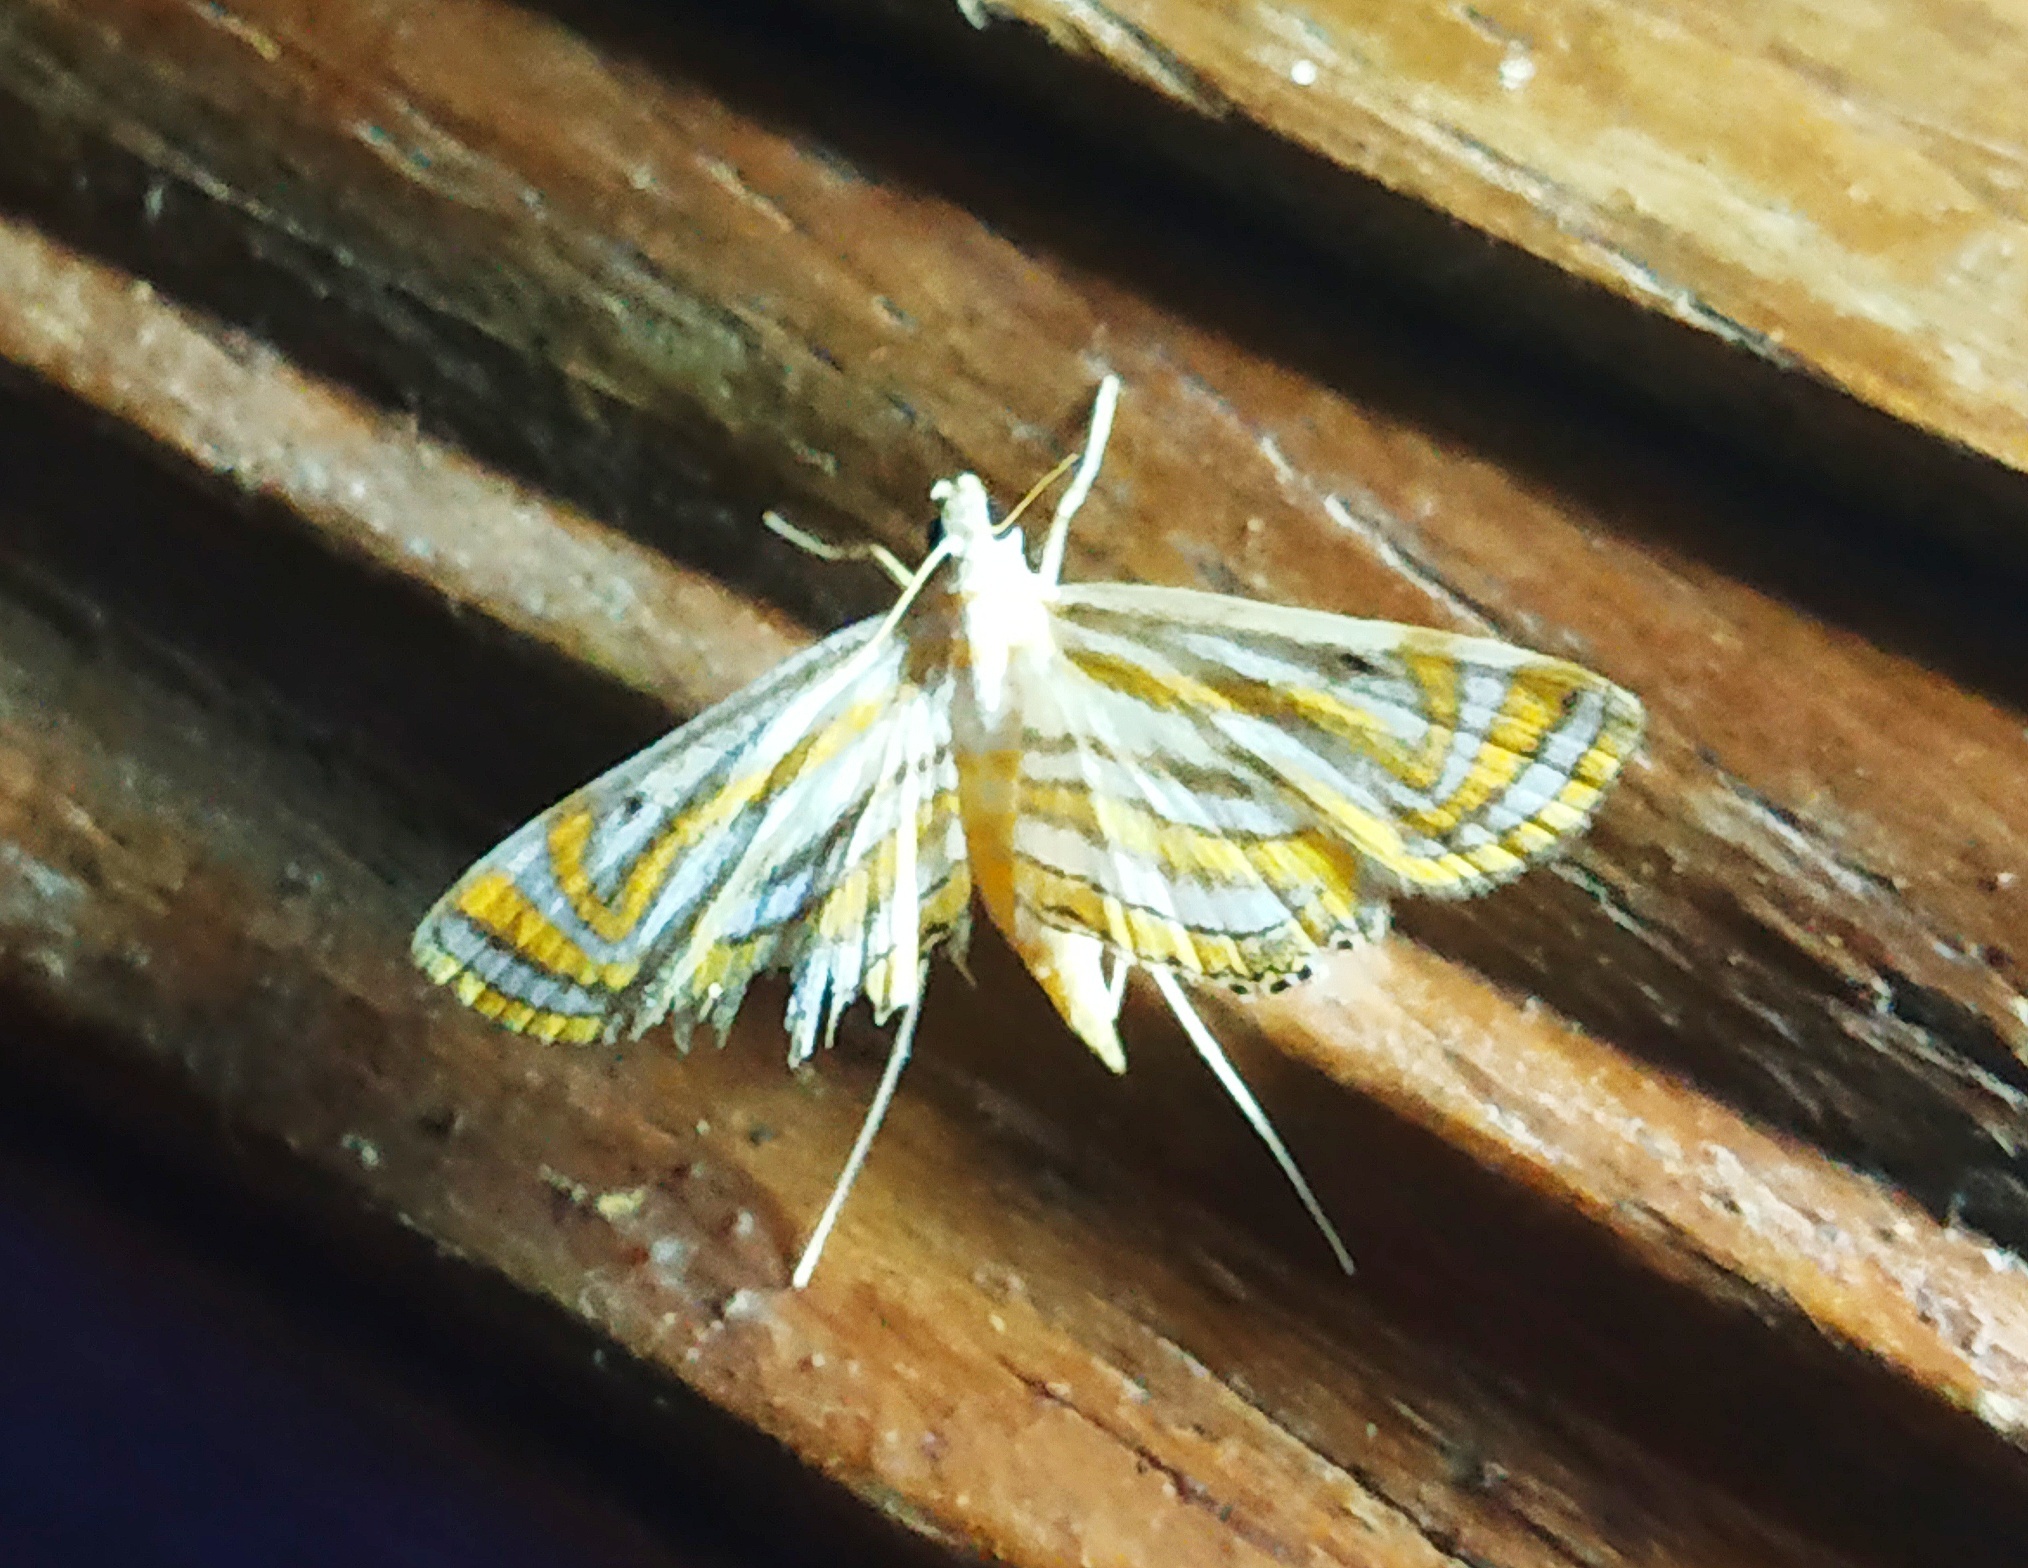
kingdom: Animalia
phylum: Arthropoda
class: Insecta
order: Lepidoptera
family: Crambidae
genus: Parapoynx
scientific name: Parapoynx villidalis
